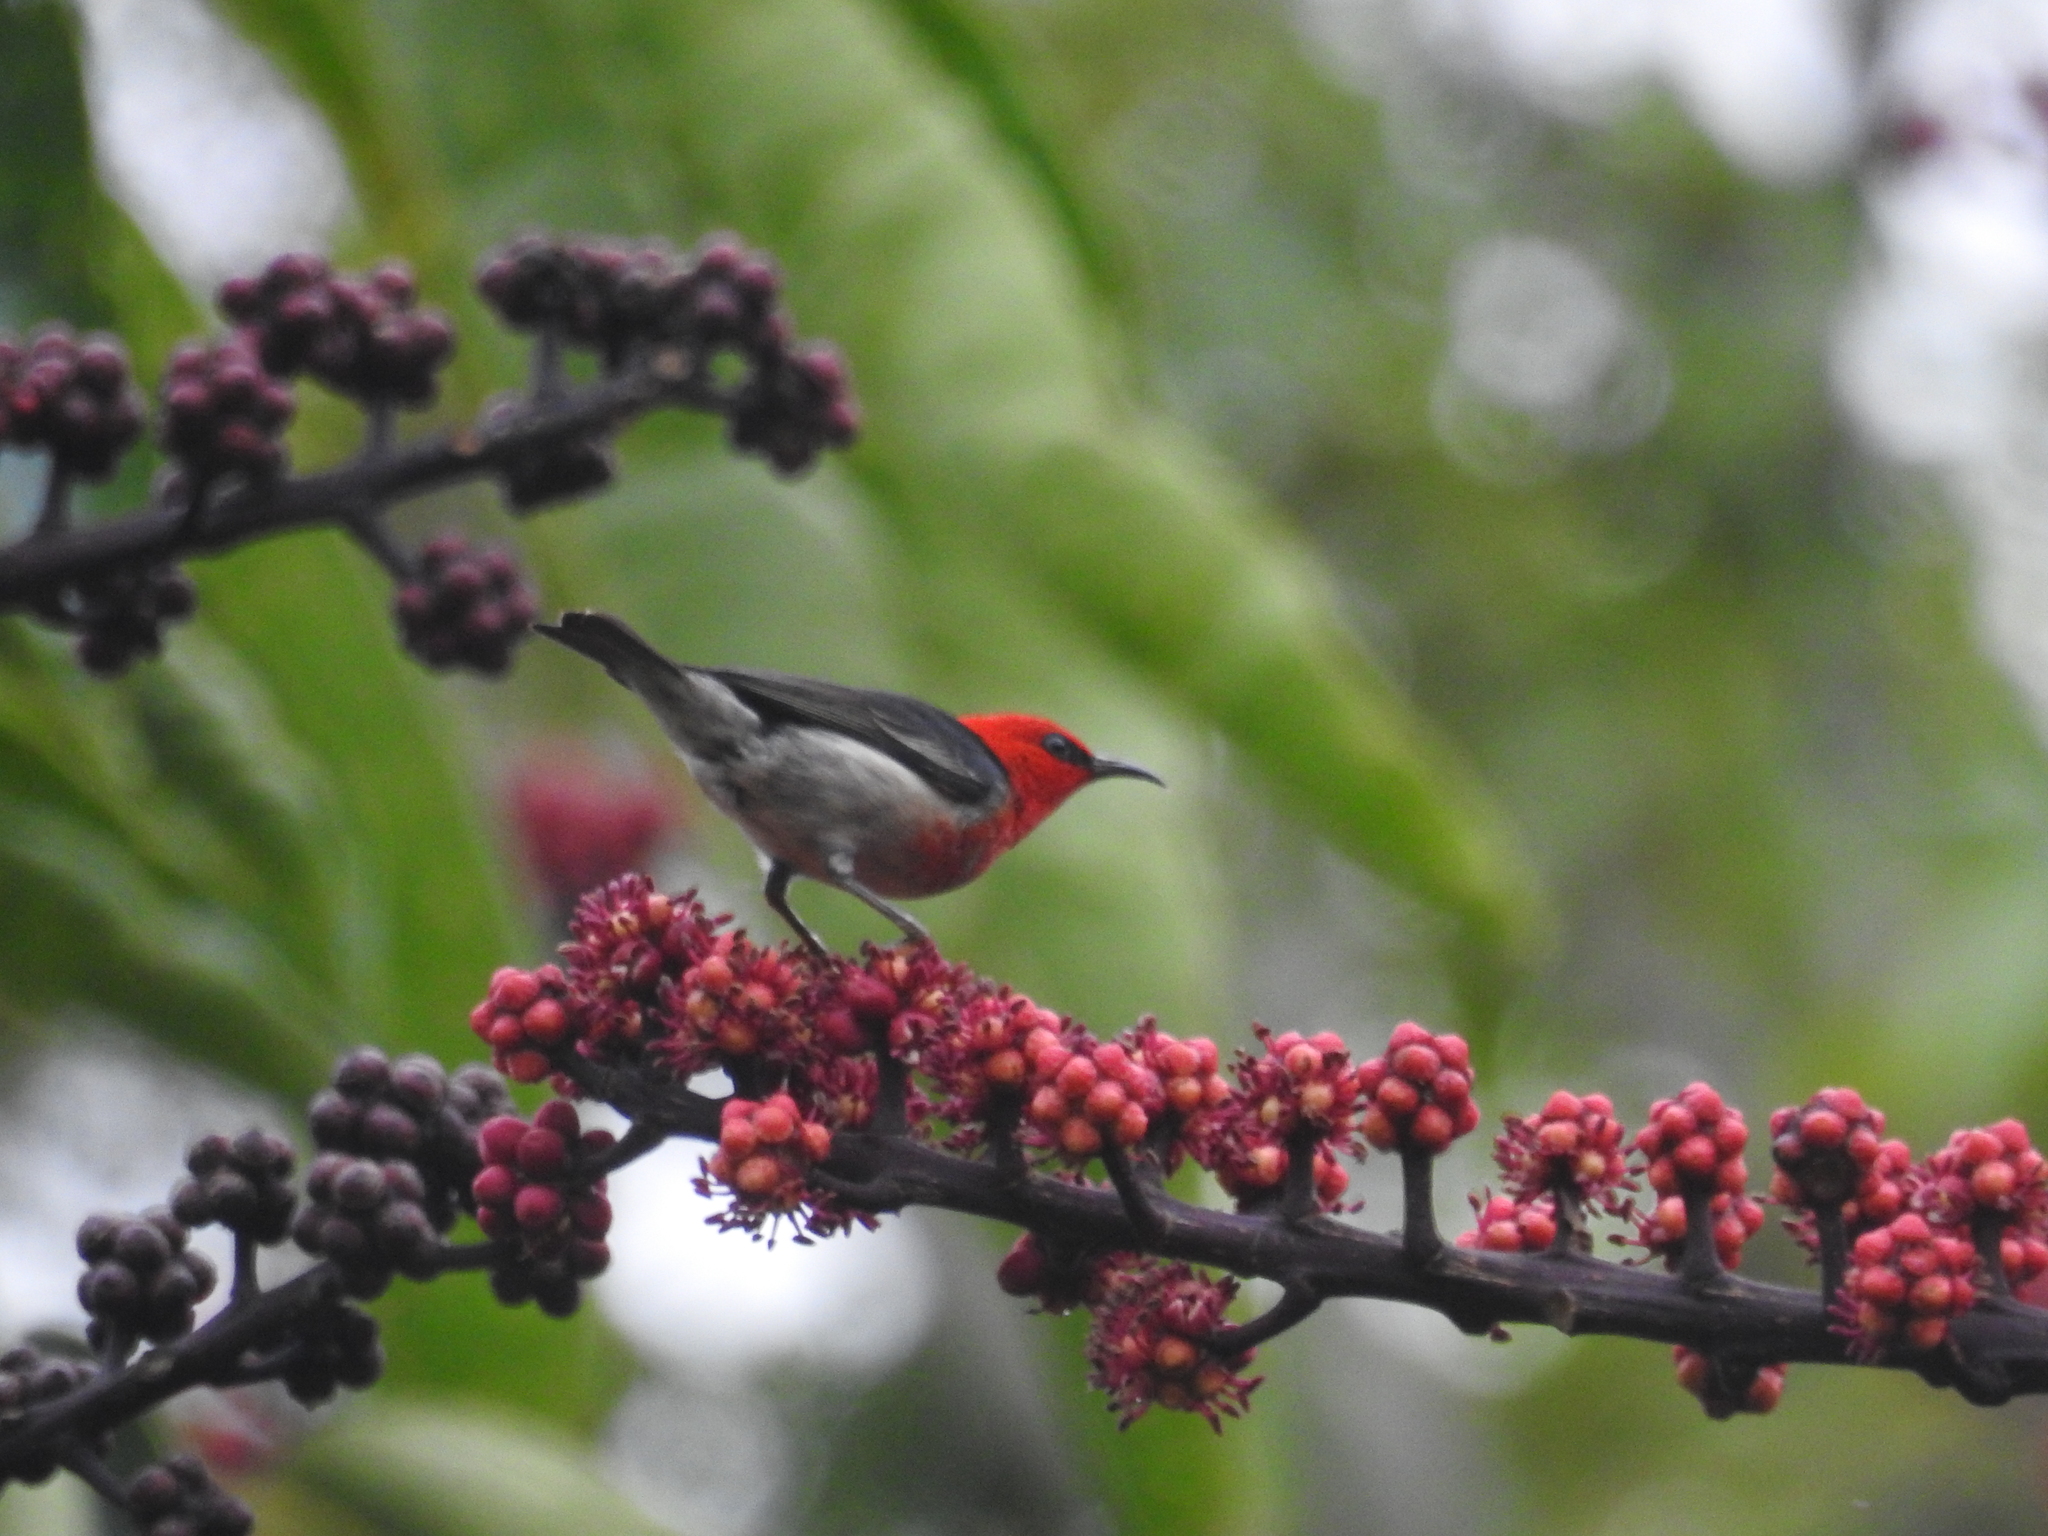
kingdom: Animalia
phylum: Chordata
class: Aves
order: Passeriformes
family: Meliphagidae
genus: Myzomela
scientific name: Myzomela sanguinolenta
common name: Scarlet myzomela
